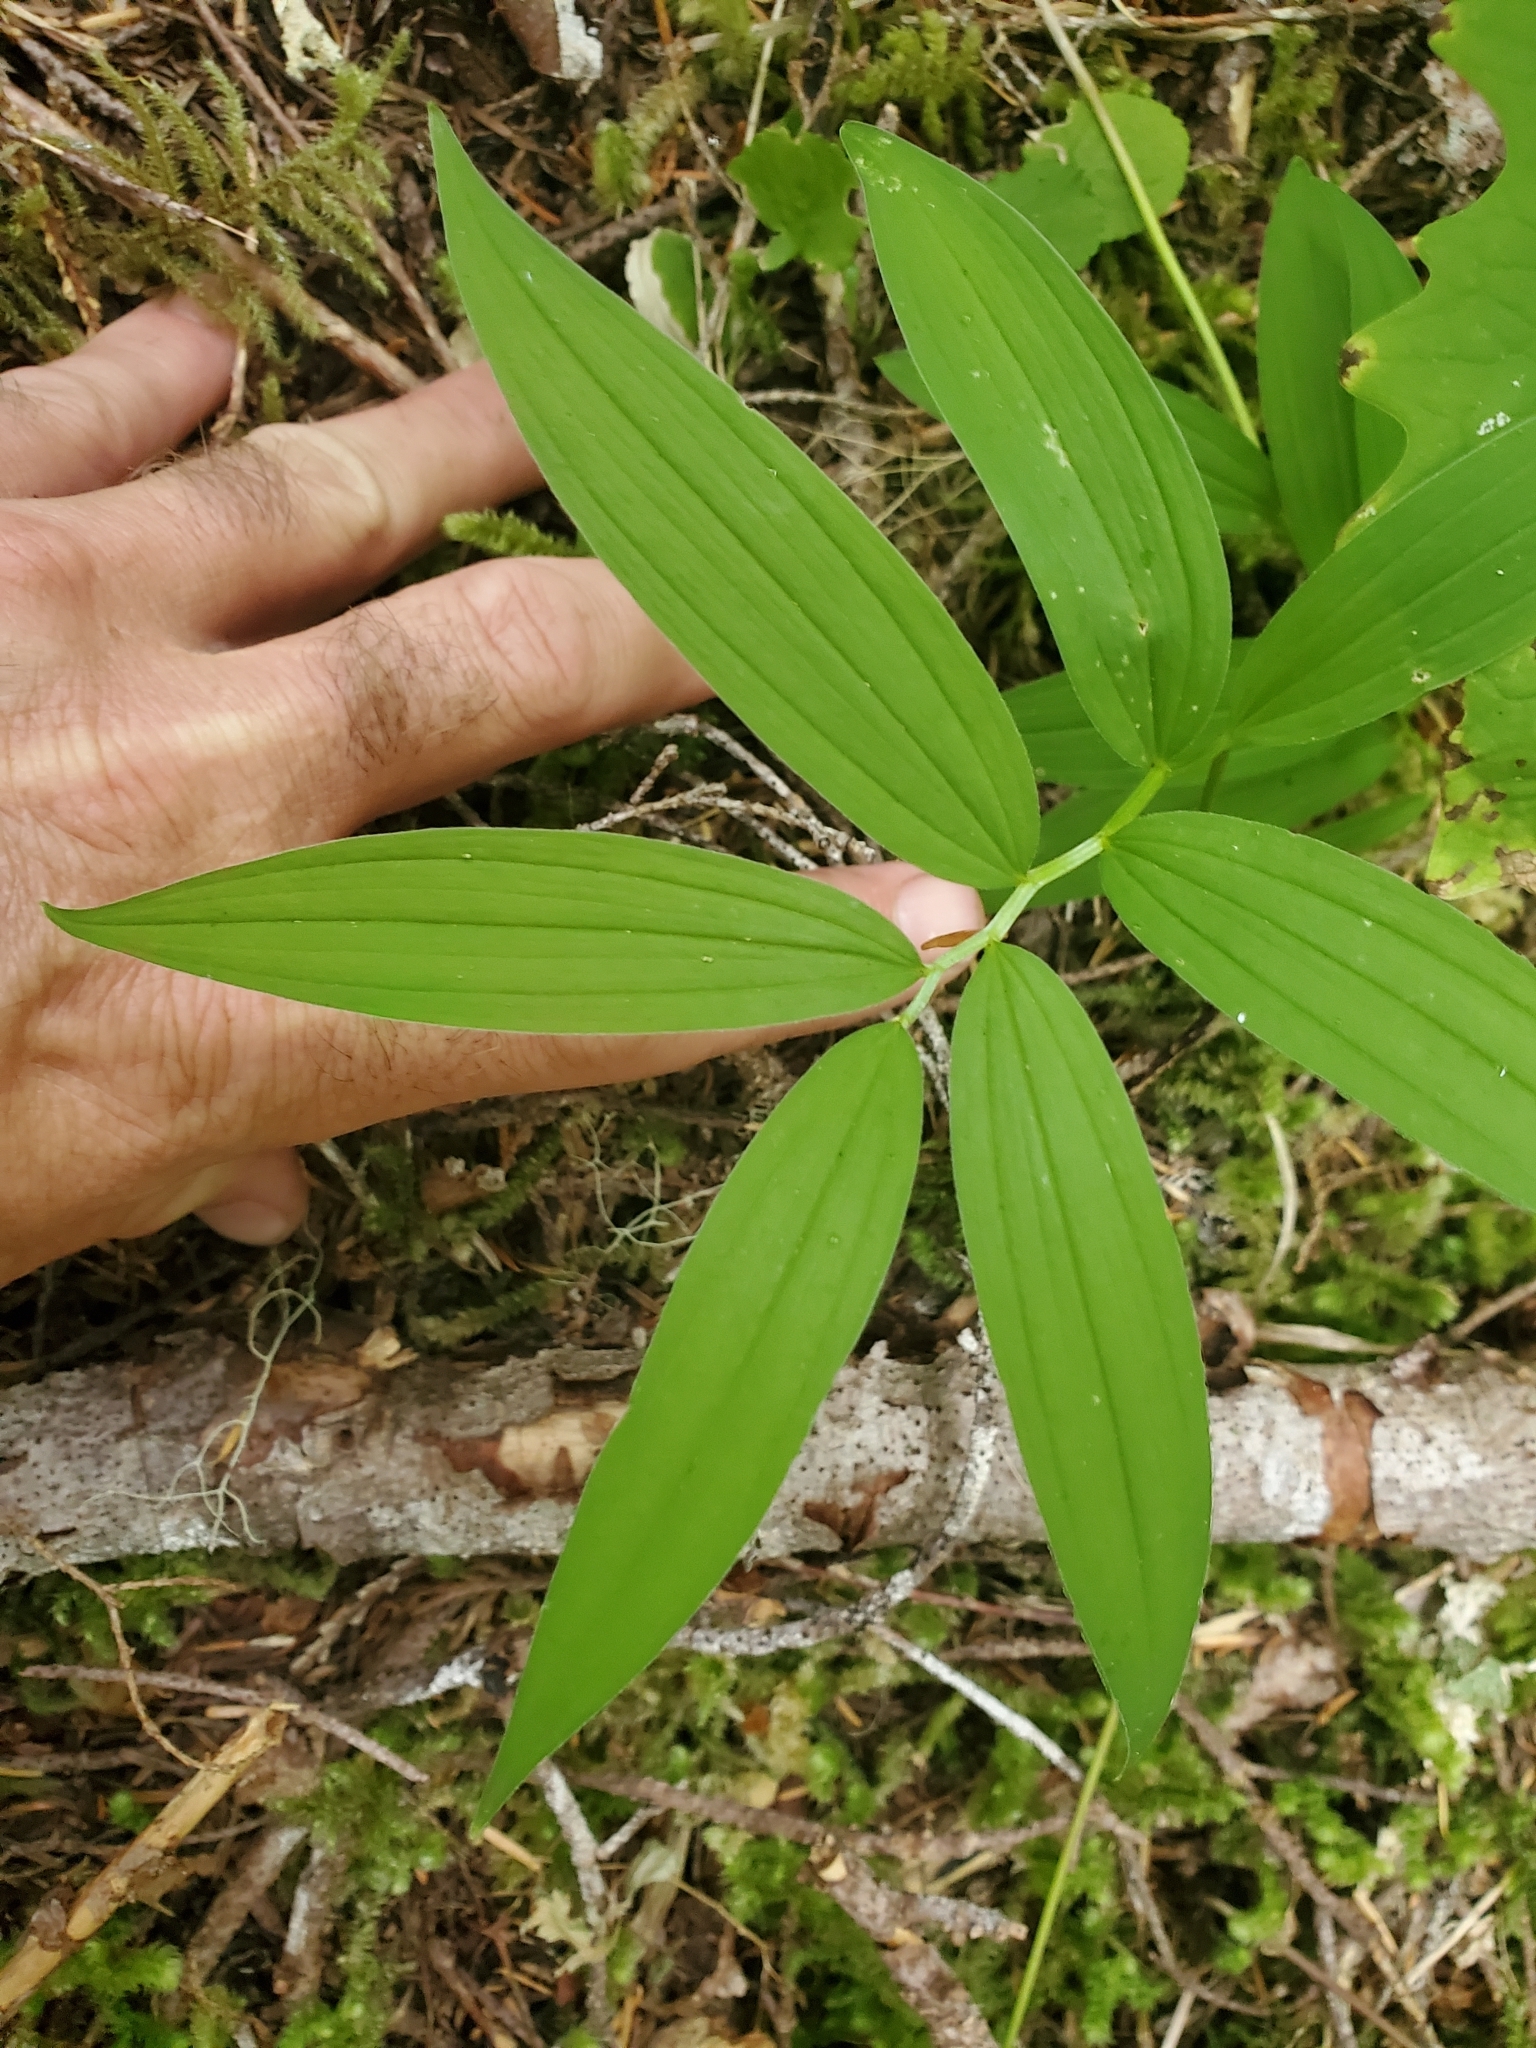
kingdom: Plantae
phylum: Tracheophyta
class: Liliopsida
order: Asparagales
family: Asparagaceae
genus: Maianthemum
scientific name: Maianthemum stellatum
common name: Little false solomon's seal
